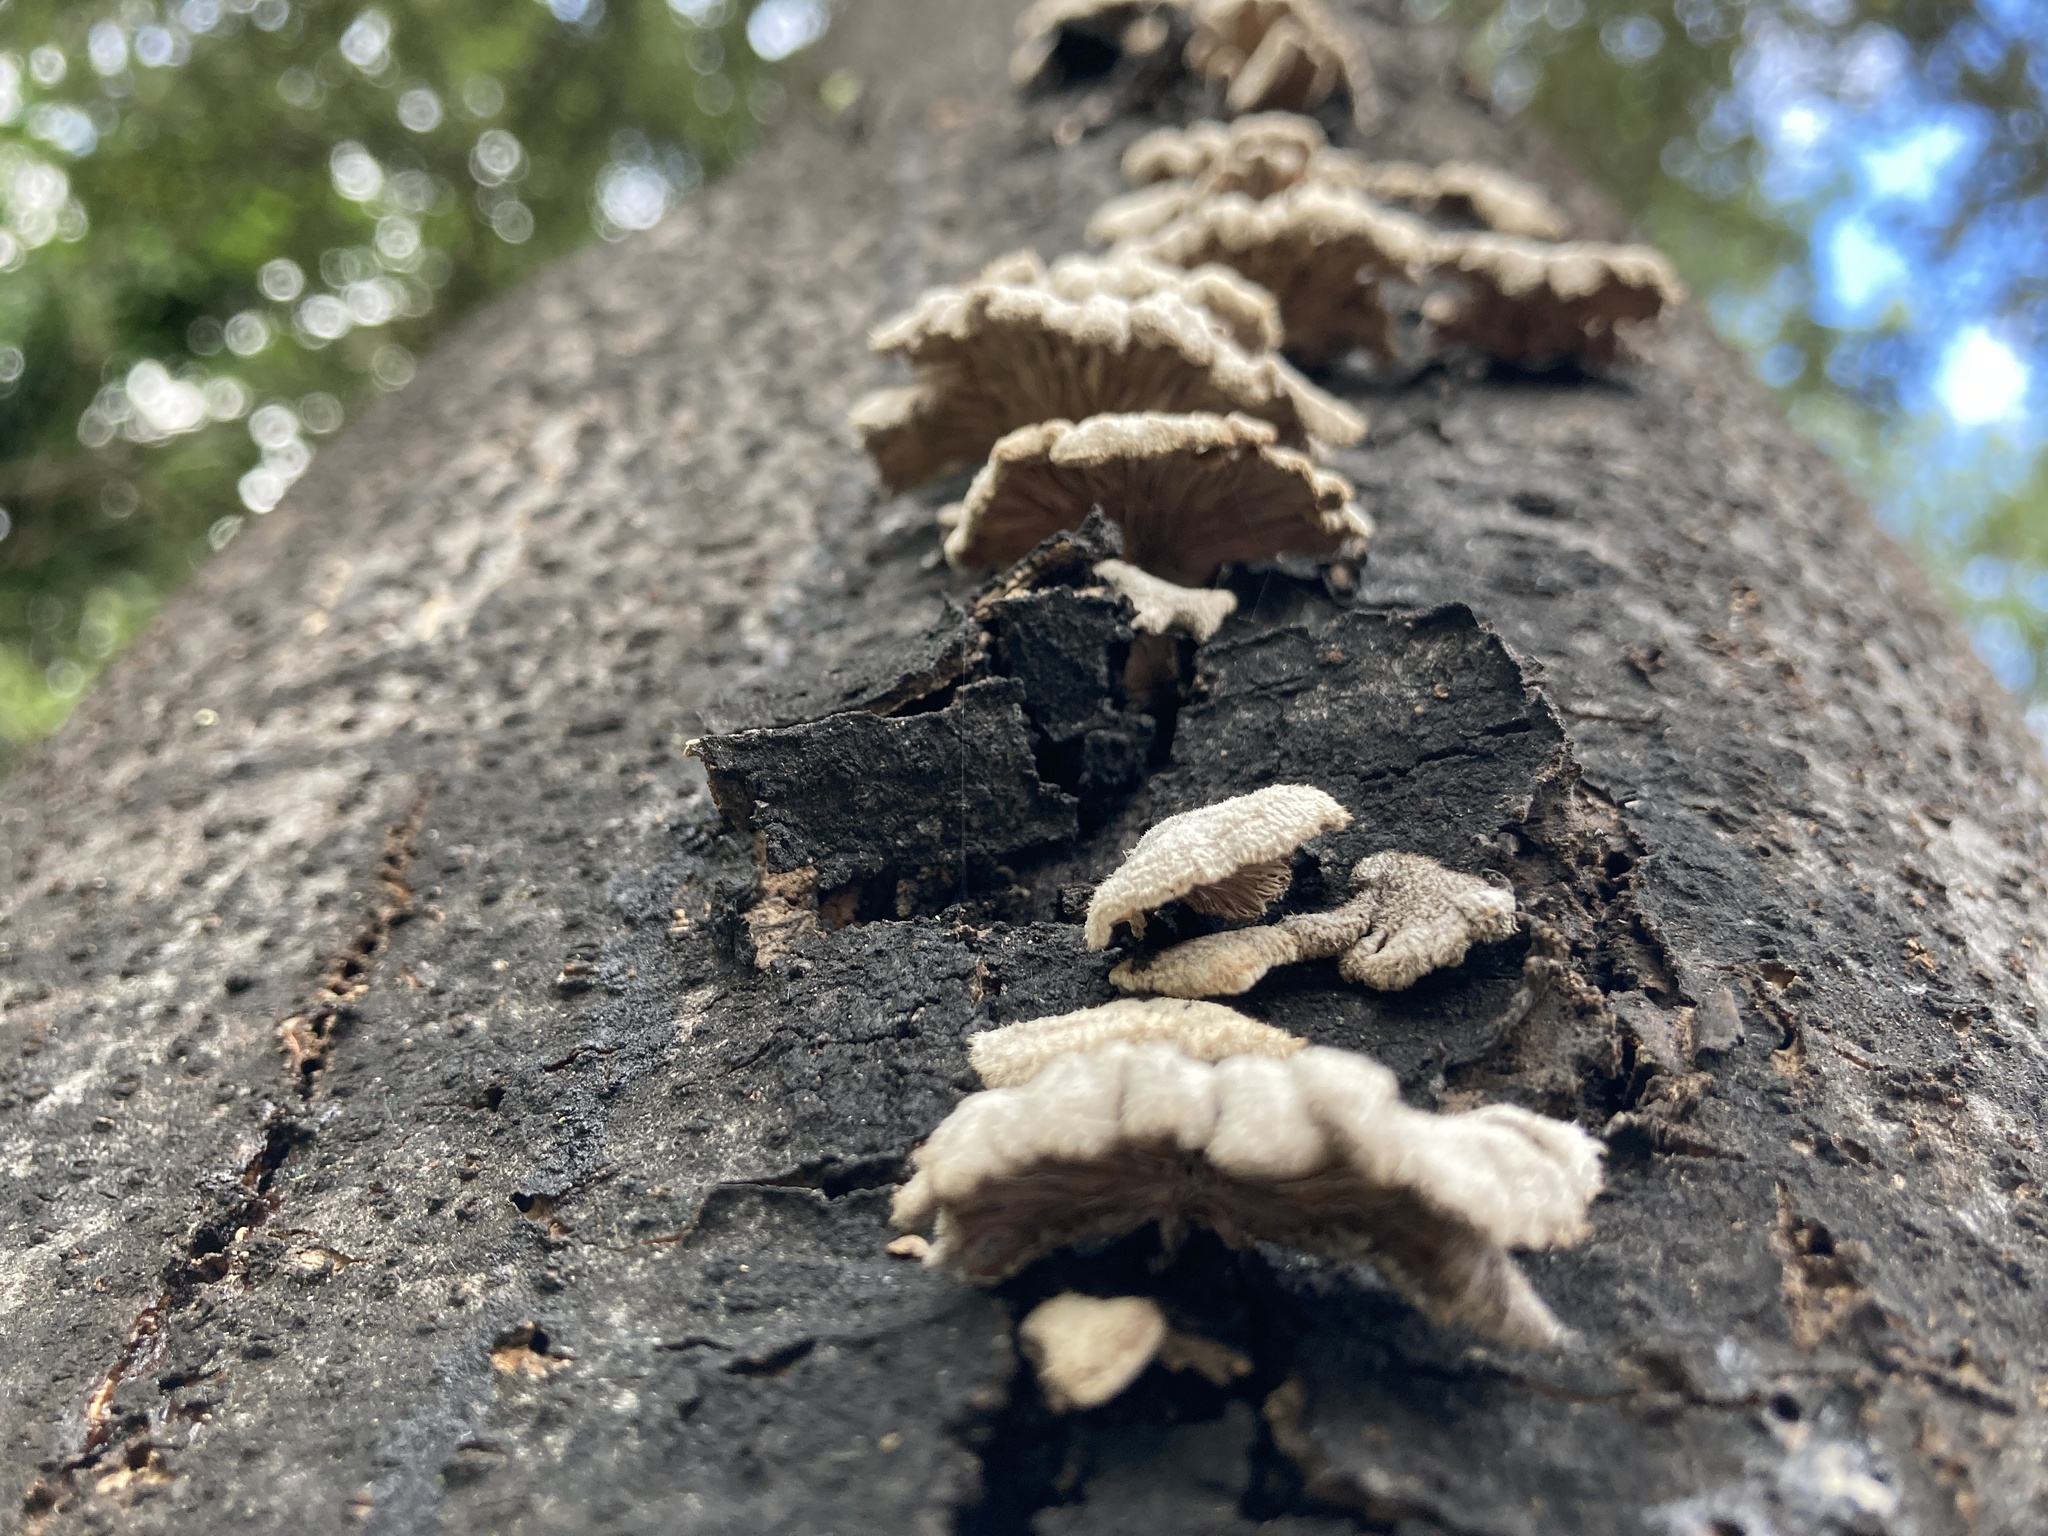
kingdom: Fungi
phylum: Basidiomycota
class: Agaricomycetes
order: Agaricales
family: Schizophyllaceae
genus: Schizophyllum
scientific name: Schizophyllum commune
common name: Common porecrust
